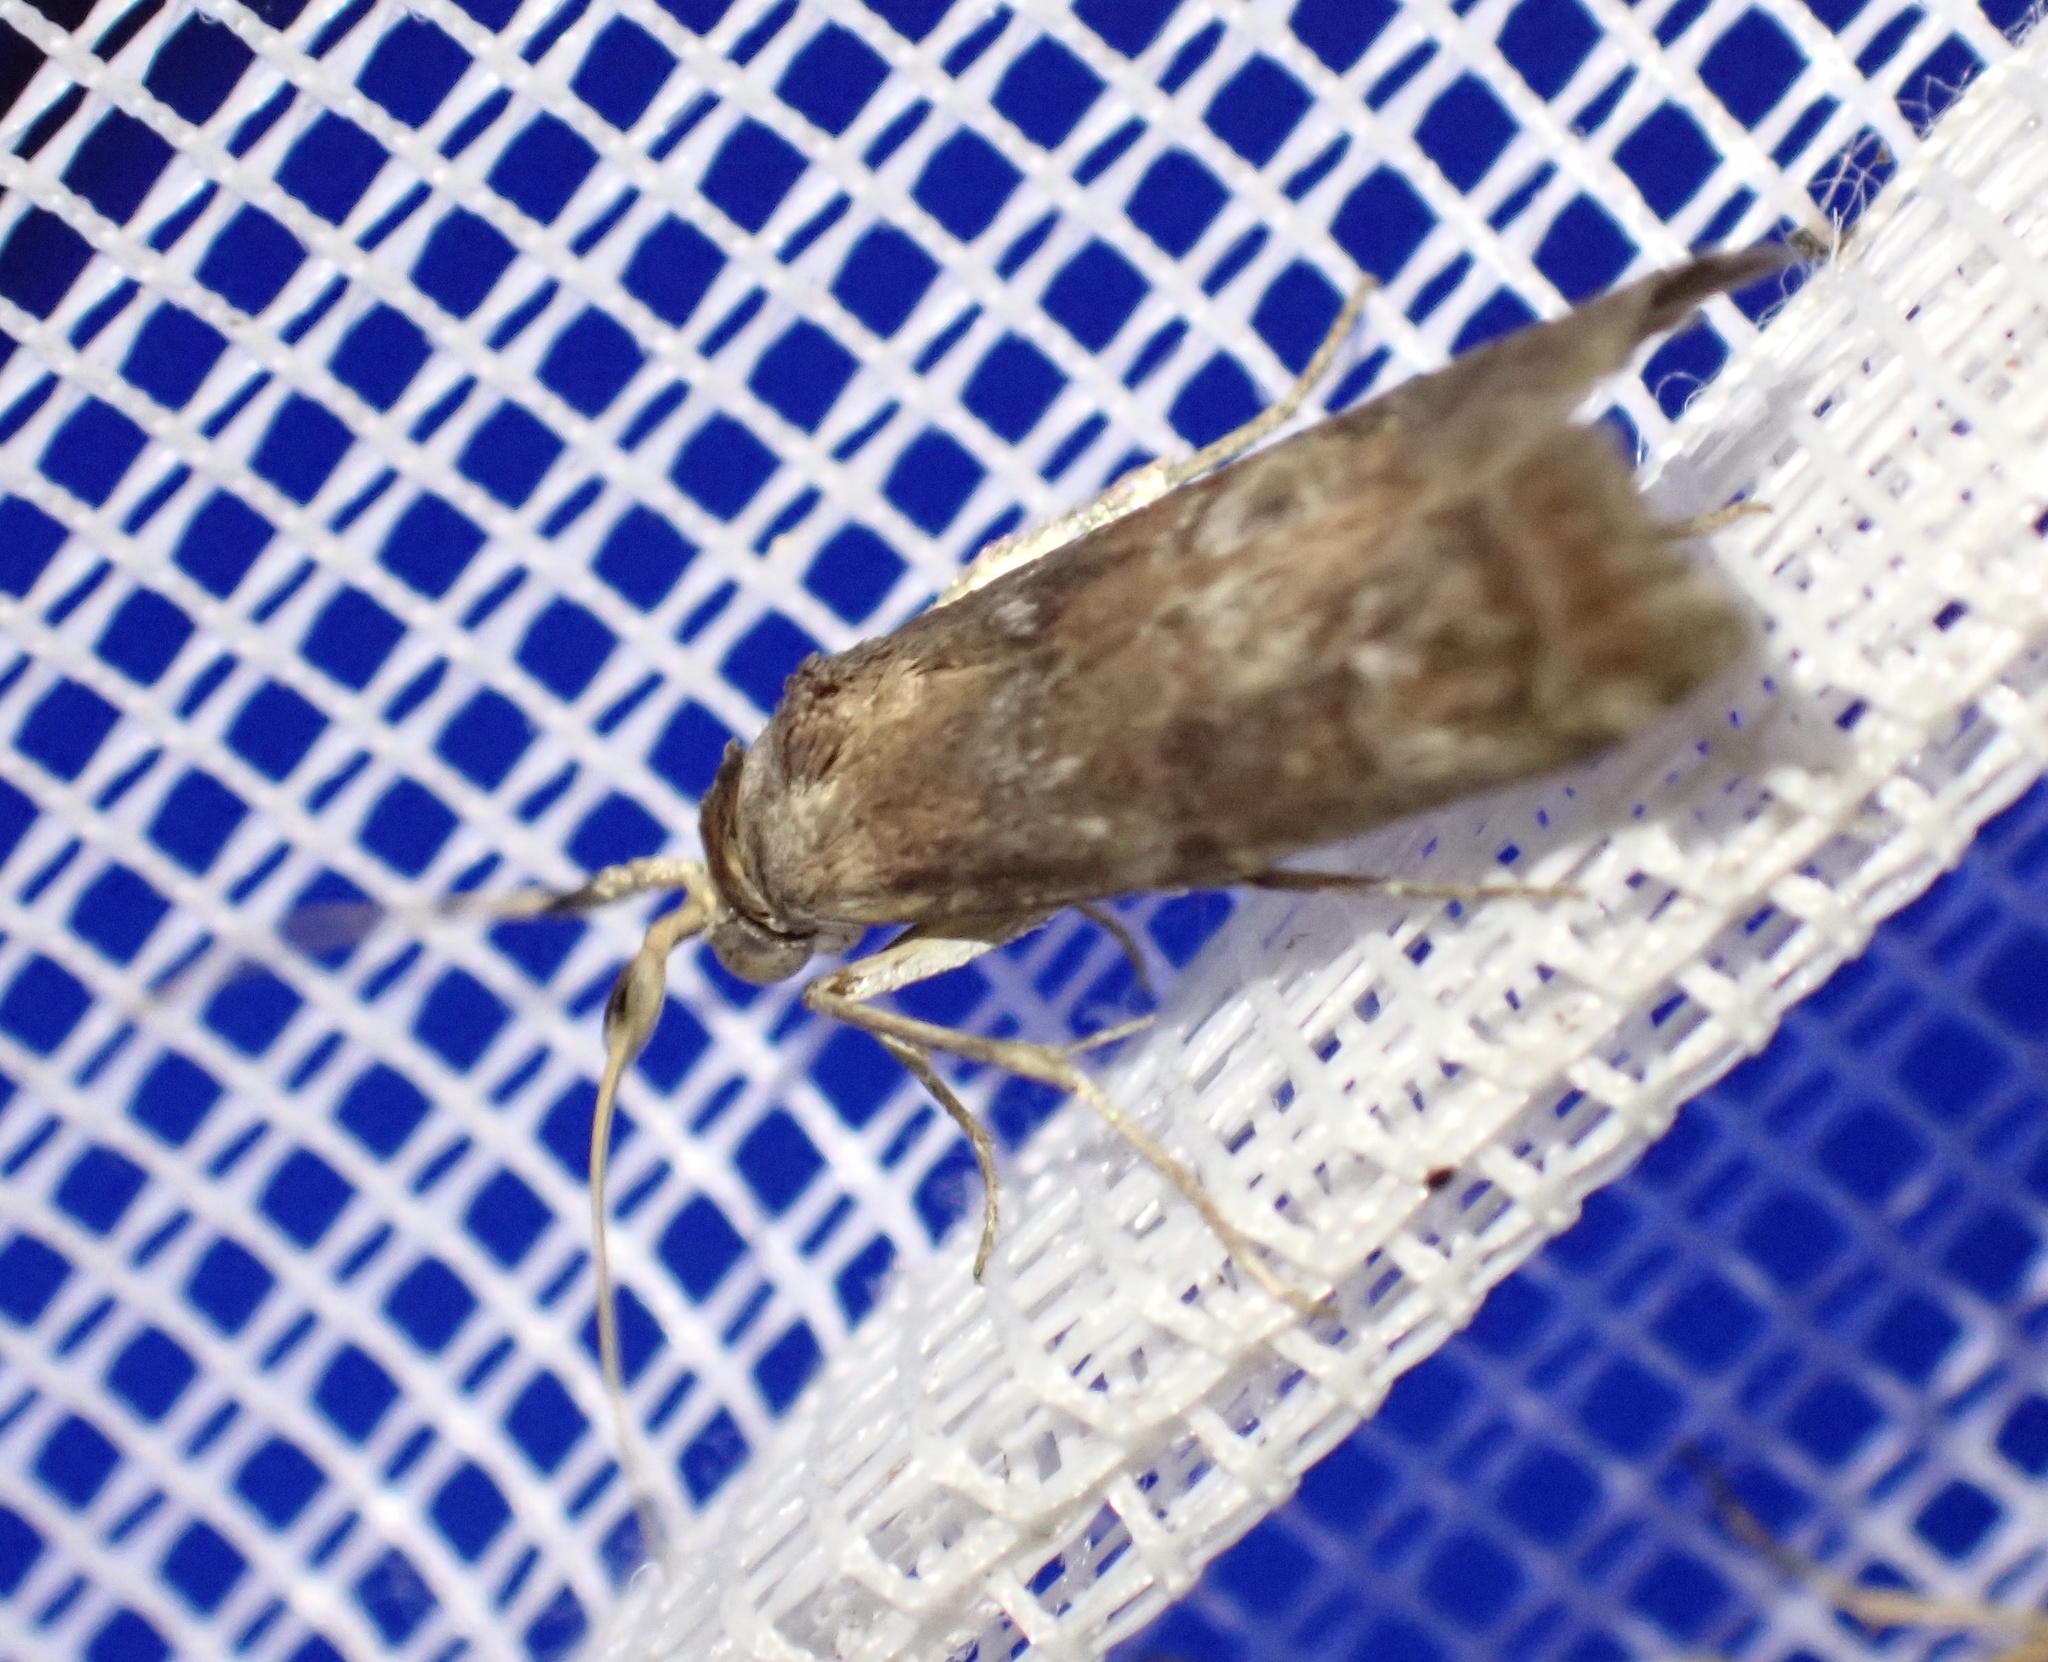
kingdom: Animalia
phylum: Arthropoda
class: Insecta
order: Lepidoptera
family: Pyralidae
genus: Phycita
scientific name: Phycita roborella
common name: Dotted oak knot-horn
